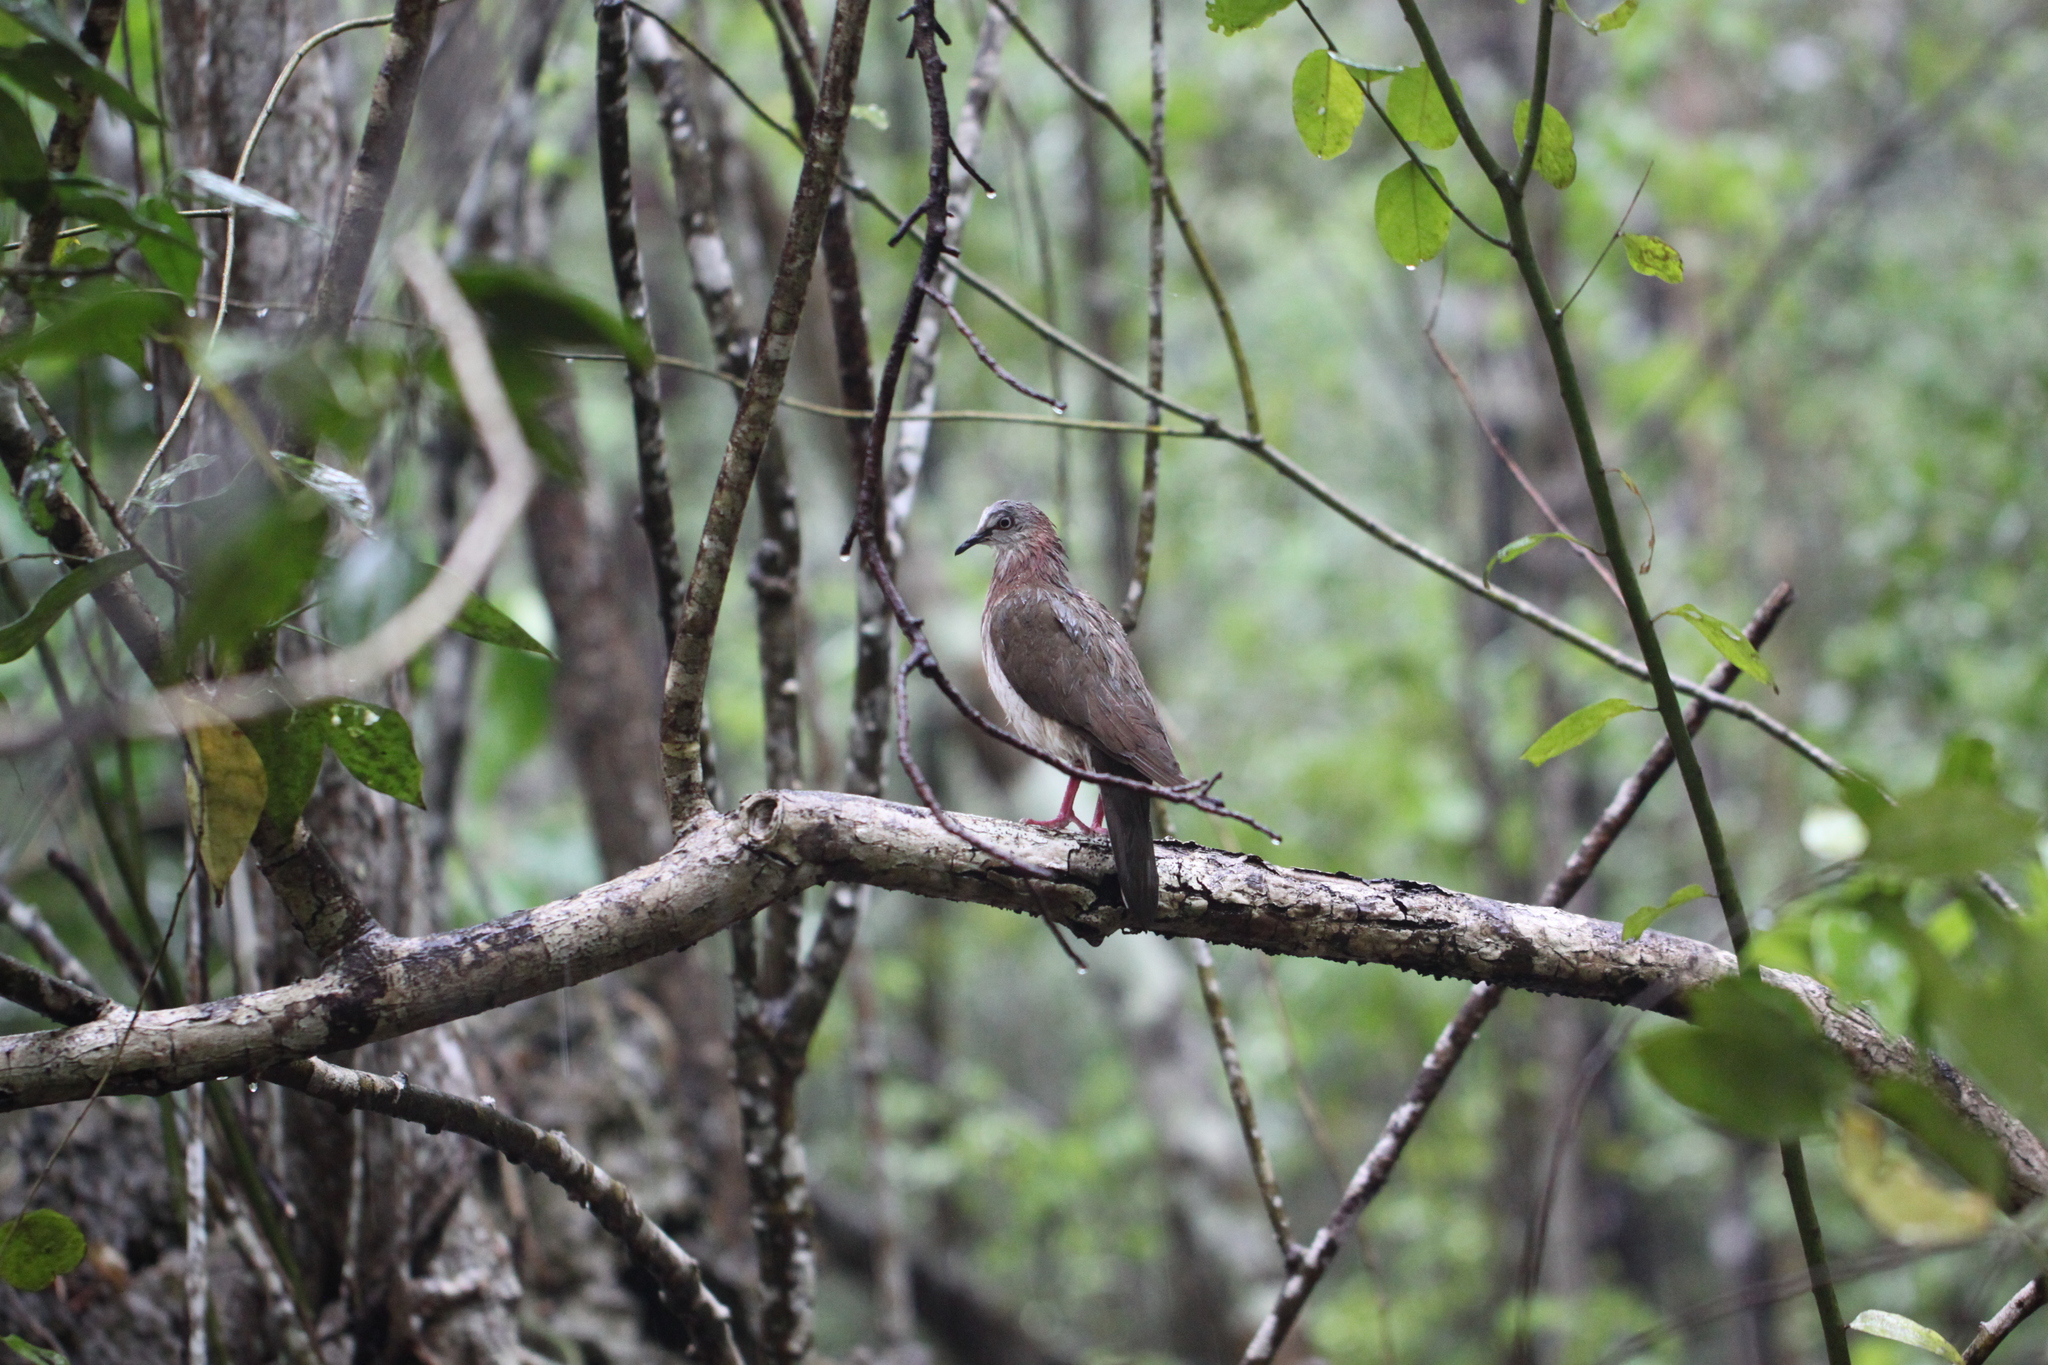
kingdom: Animalia
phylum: Chordata
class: Aves
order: Columbiformes
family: Columbidae
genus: Leptotila
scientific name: Leptotila jamaicensis
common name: Caribbean dove
